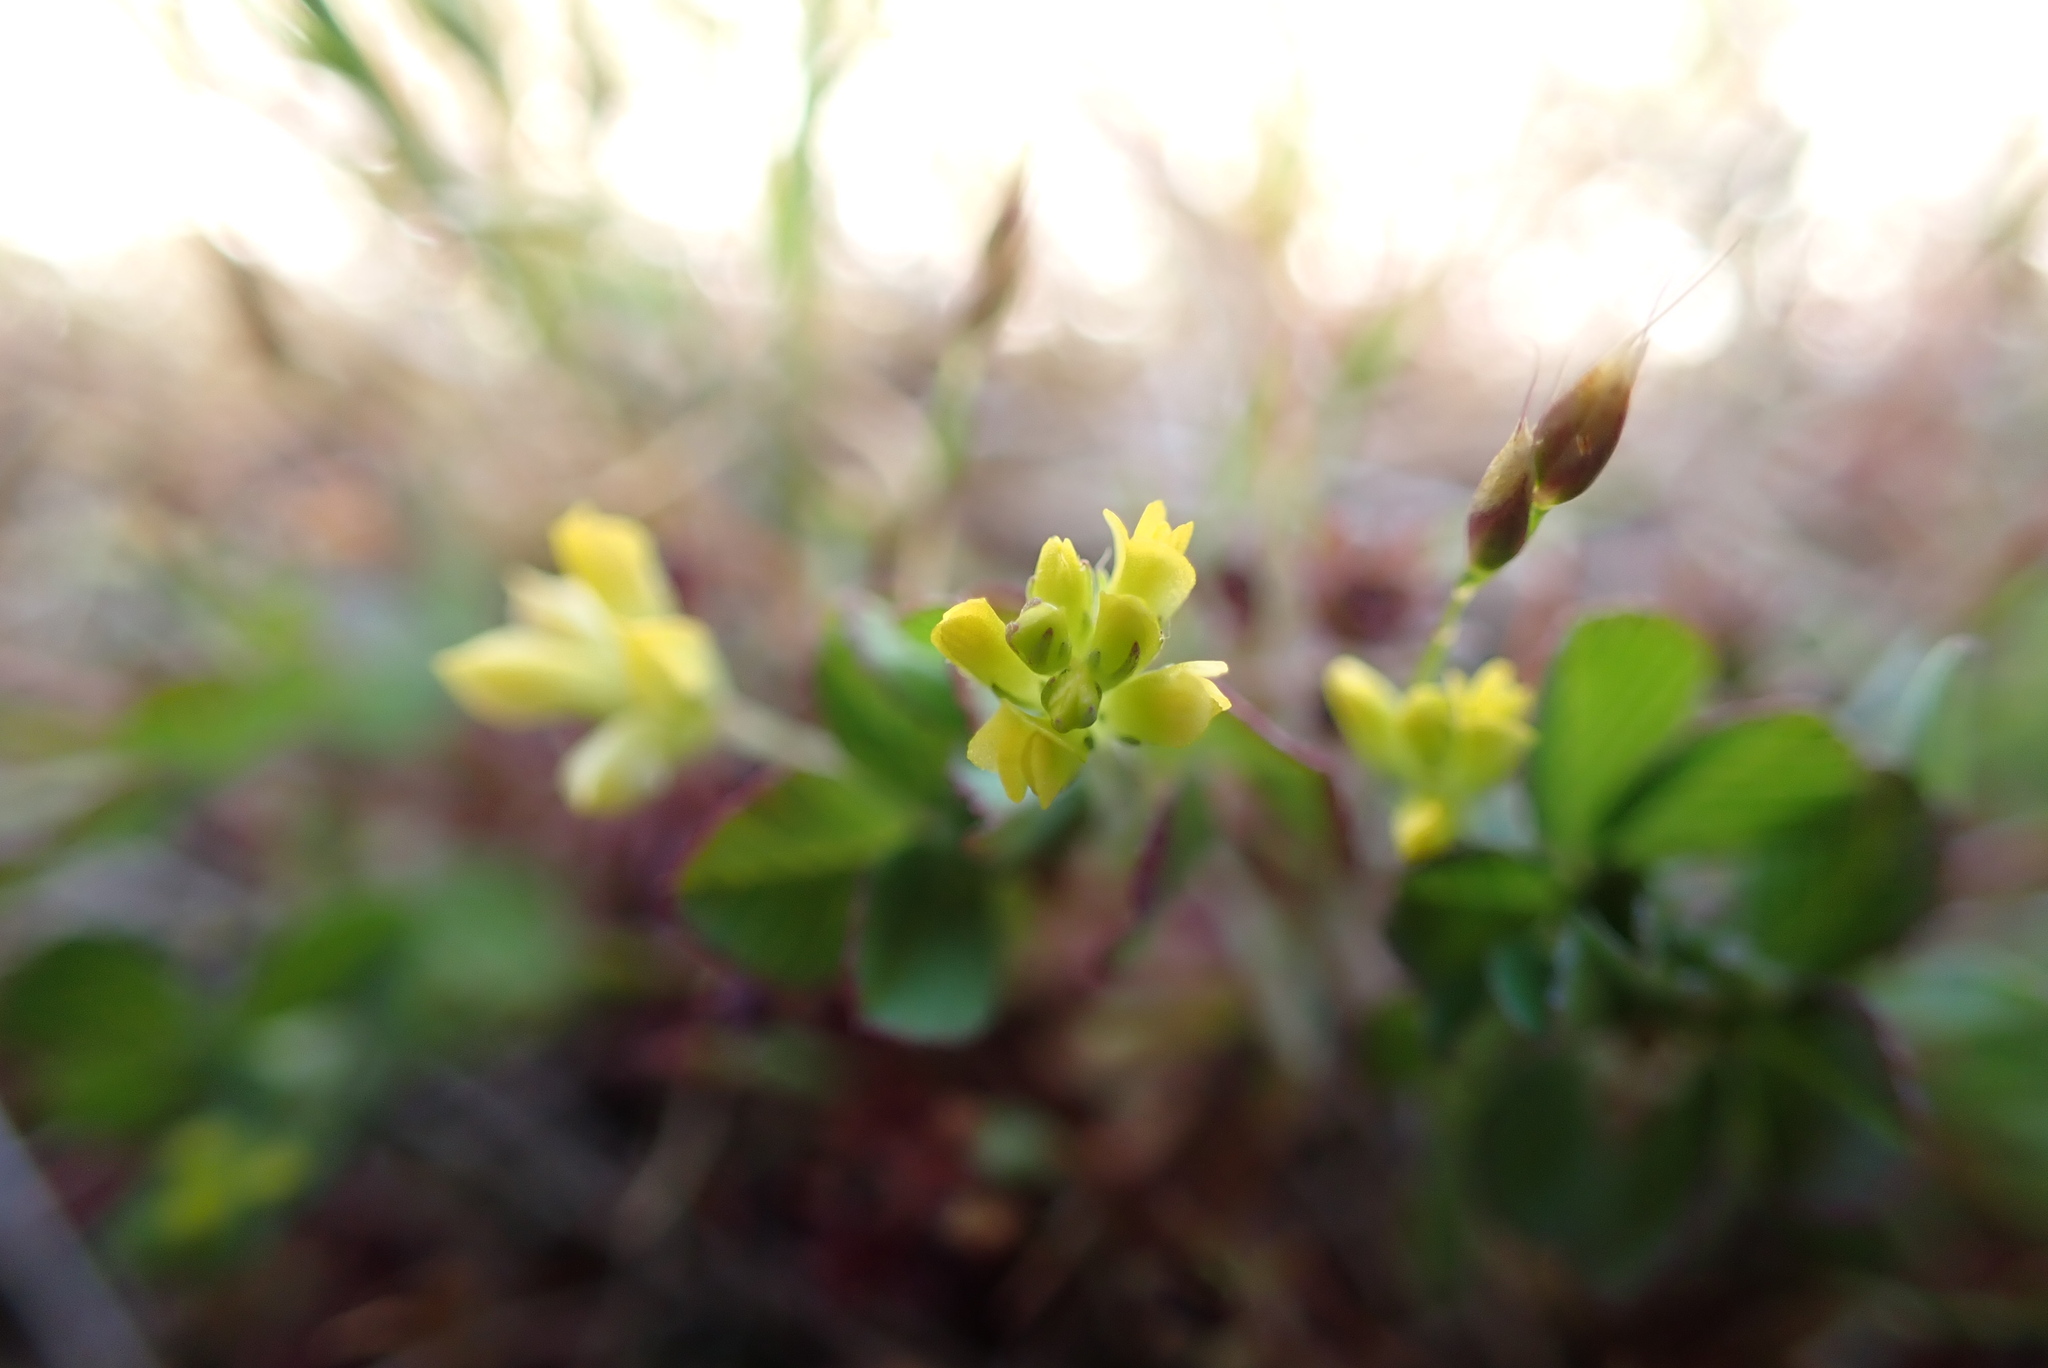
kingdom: Plantae
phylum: Tracheophyta
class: Magnoliopsida
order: Fabales
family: Fabaceae
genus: Trifolium
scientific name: Trifolium dubium
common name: Suckling clover
